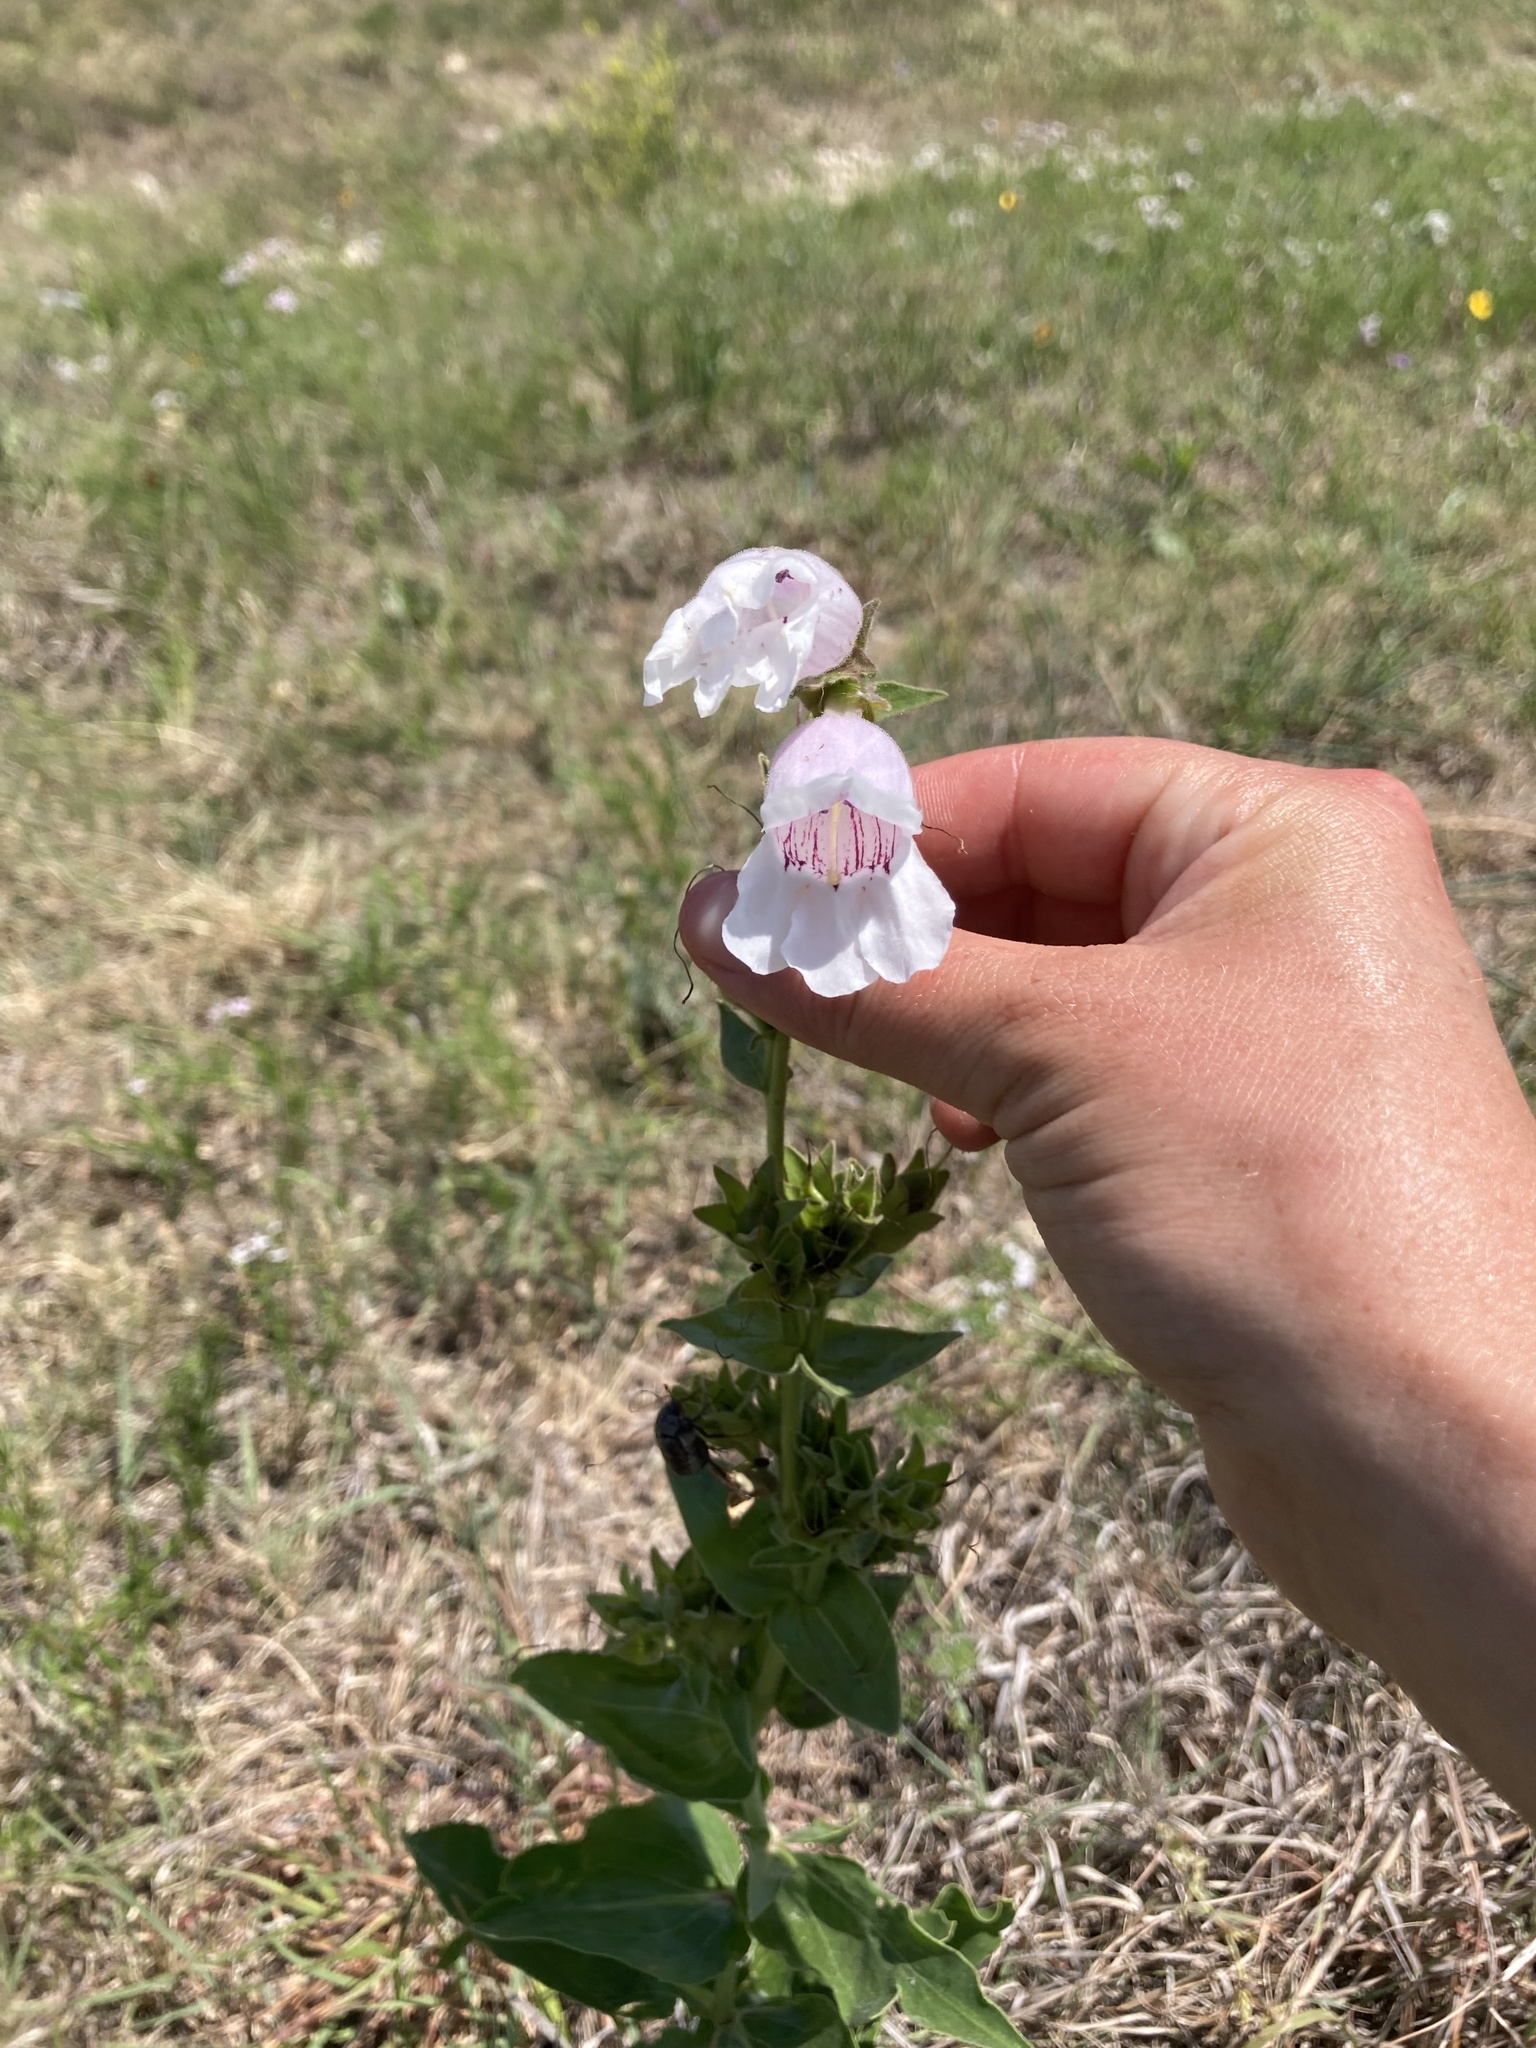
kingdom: Plantae
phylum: Tracheophyta
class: Magnoliopsida
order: Lamiales
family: Plantaginaceae
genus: Penstemon
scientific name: Penstemon cobaea
